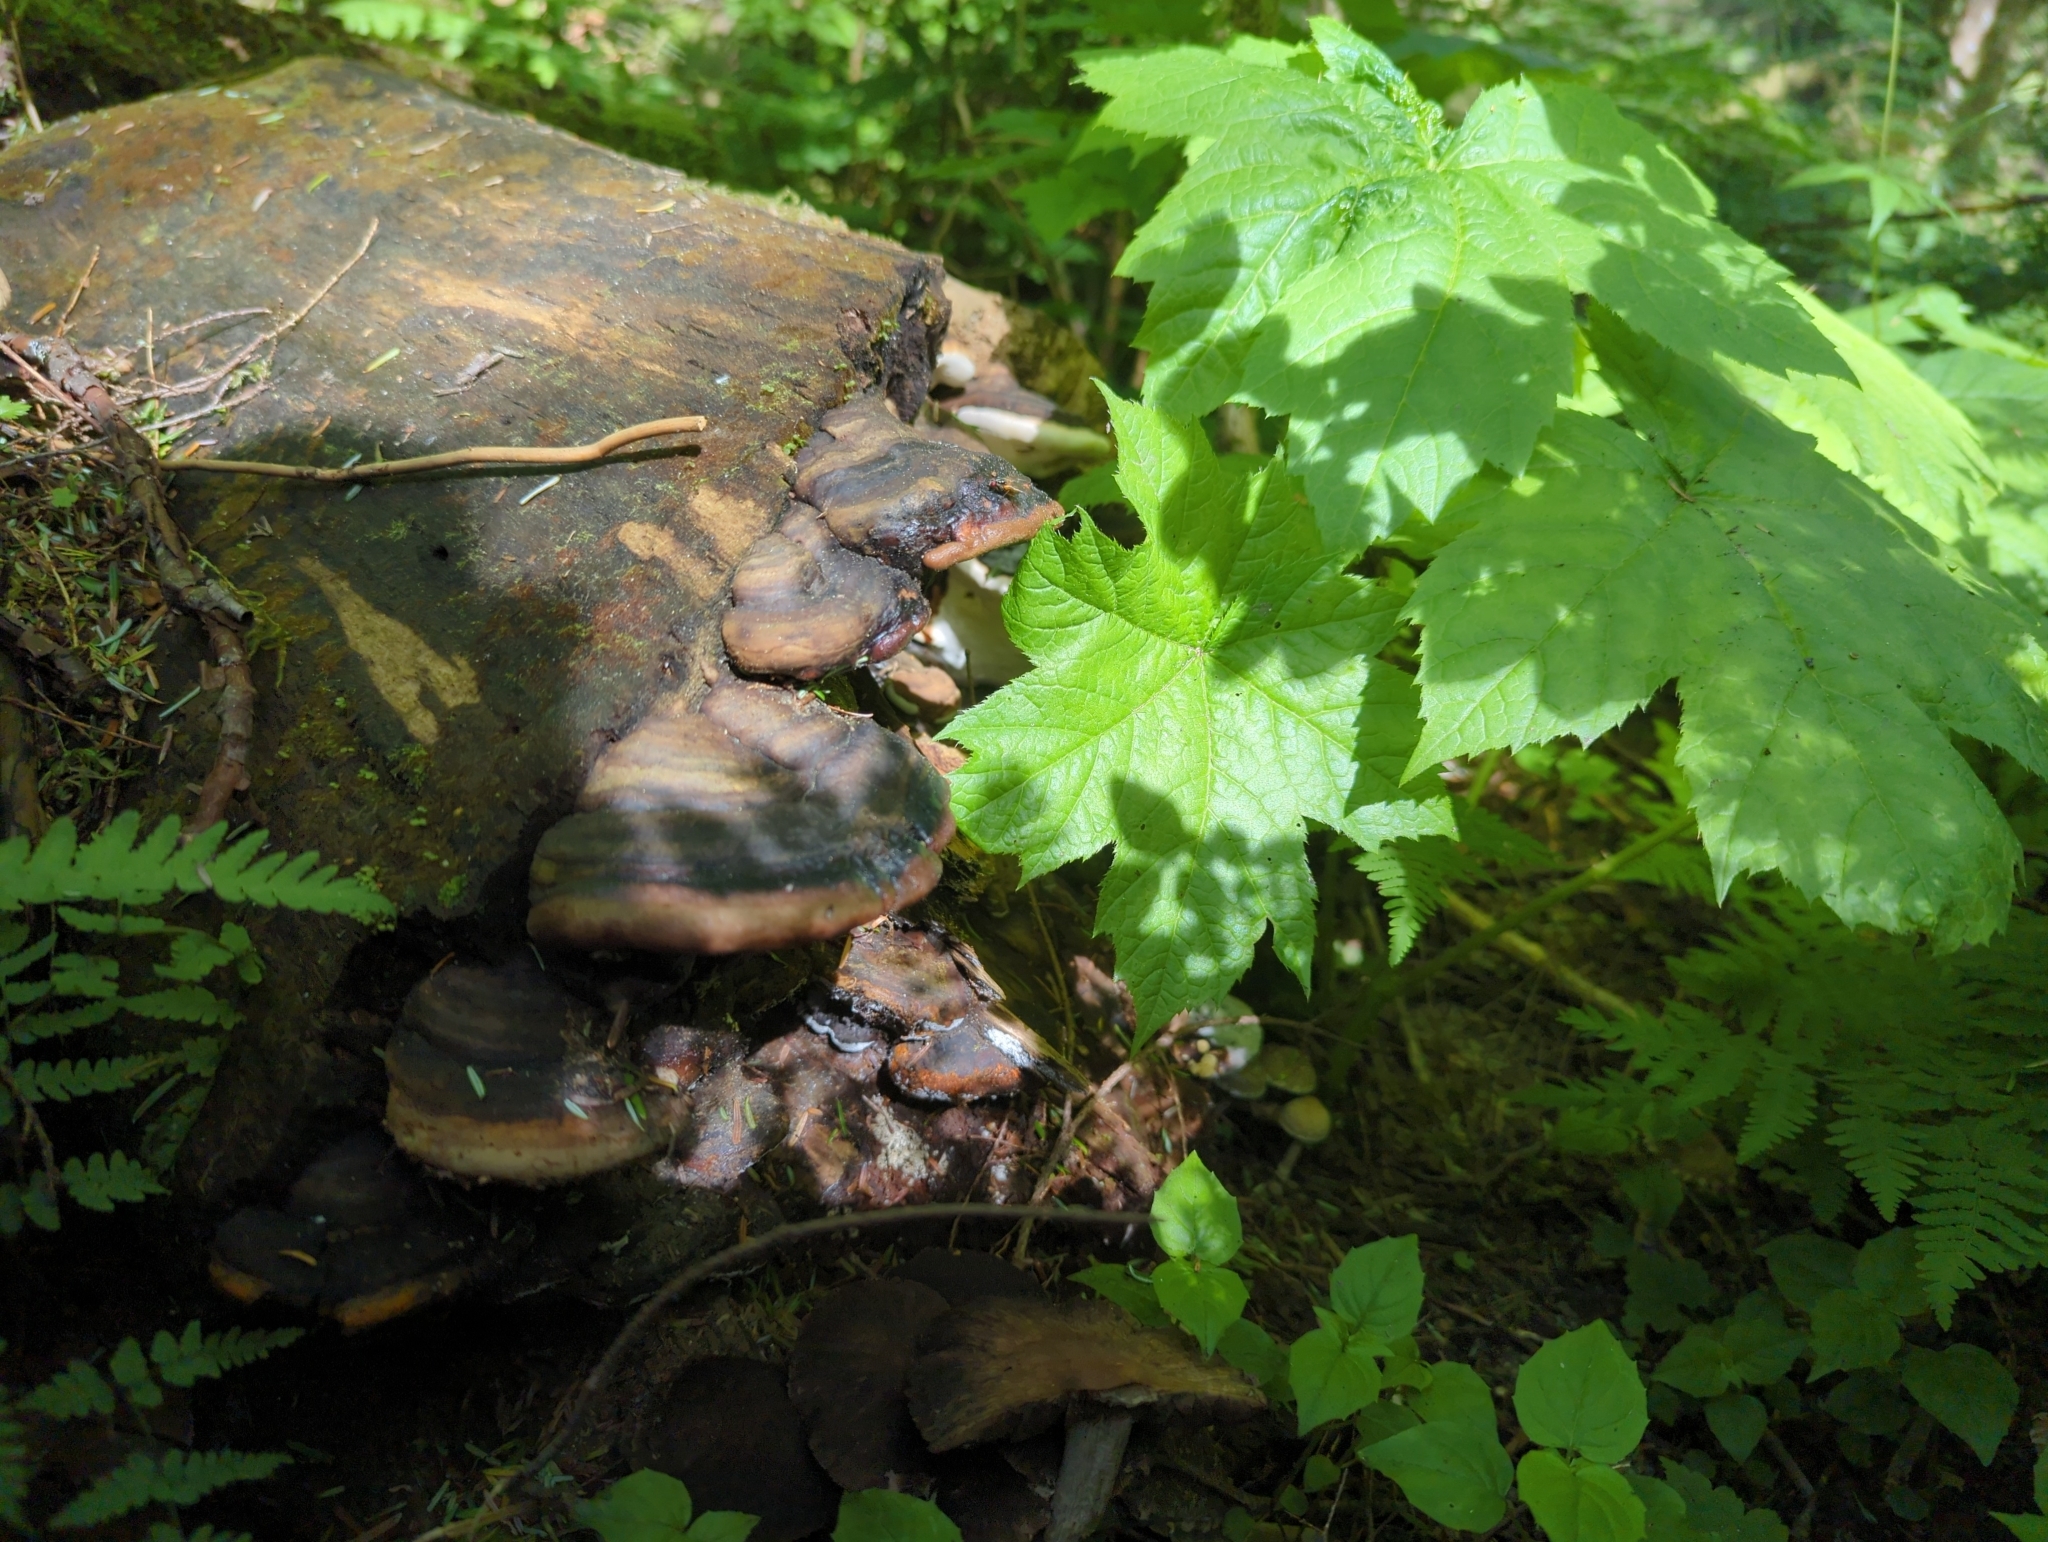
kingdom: Fungi
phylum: Basidiomycota
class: Agaricomycetes
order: Polyporales
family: Fomitopsidaceae
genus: Fomitopsis
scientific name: Fomitopsis ochracea
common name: American brown fomitopsis
